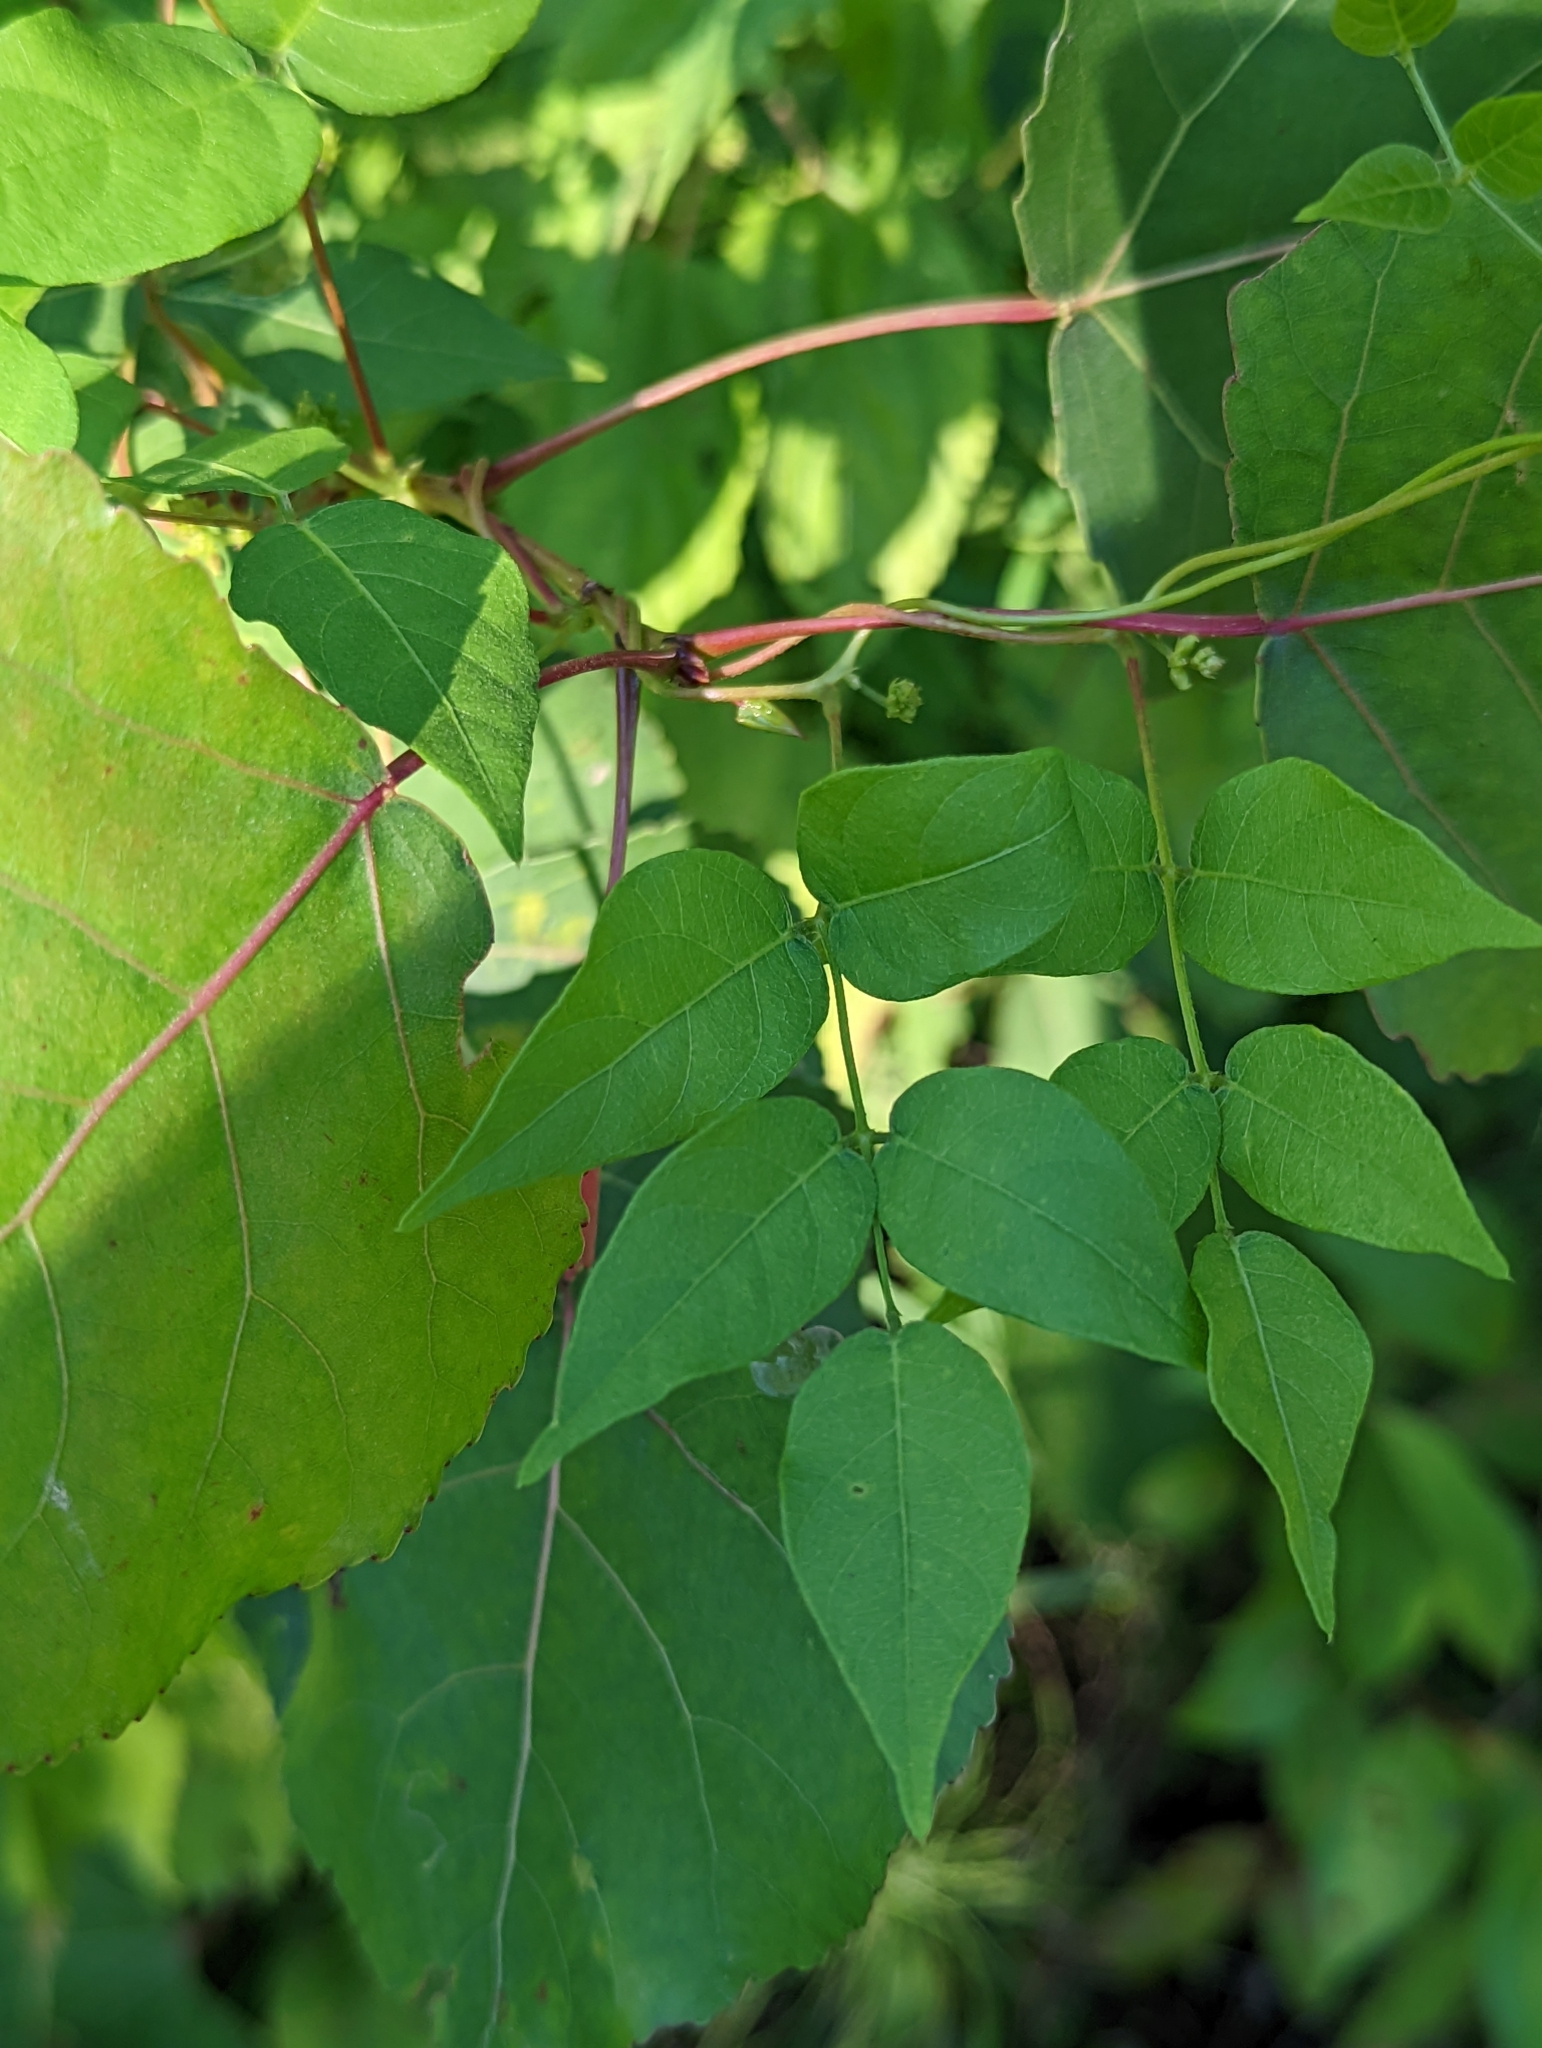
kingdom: Plantae
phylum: Tracheophyta
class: Magnoliopsida
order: Fabales
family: Fabaceae
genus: Apios
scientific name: Apios americana
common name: American potato-bean
